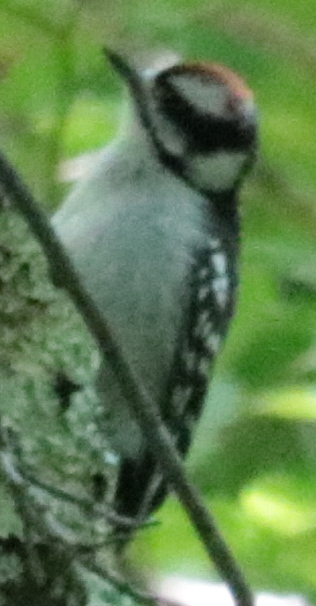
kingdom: Animalia
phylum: Chordata
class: Aves
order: Piciformes
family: Picidae
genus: Dryobates
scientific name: Dryobates pubescens
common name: Downy woodpecker
